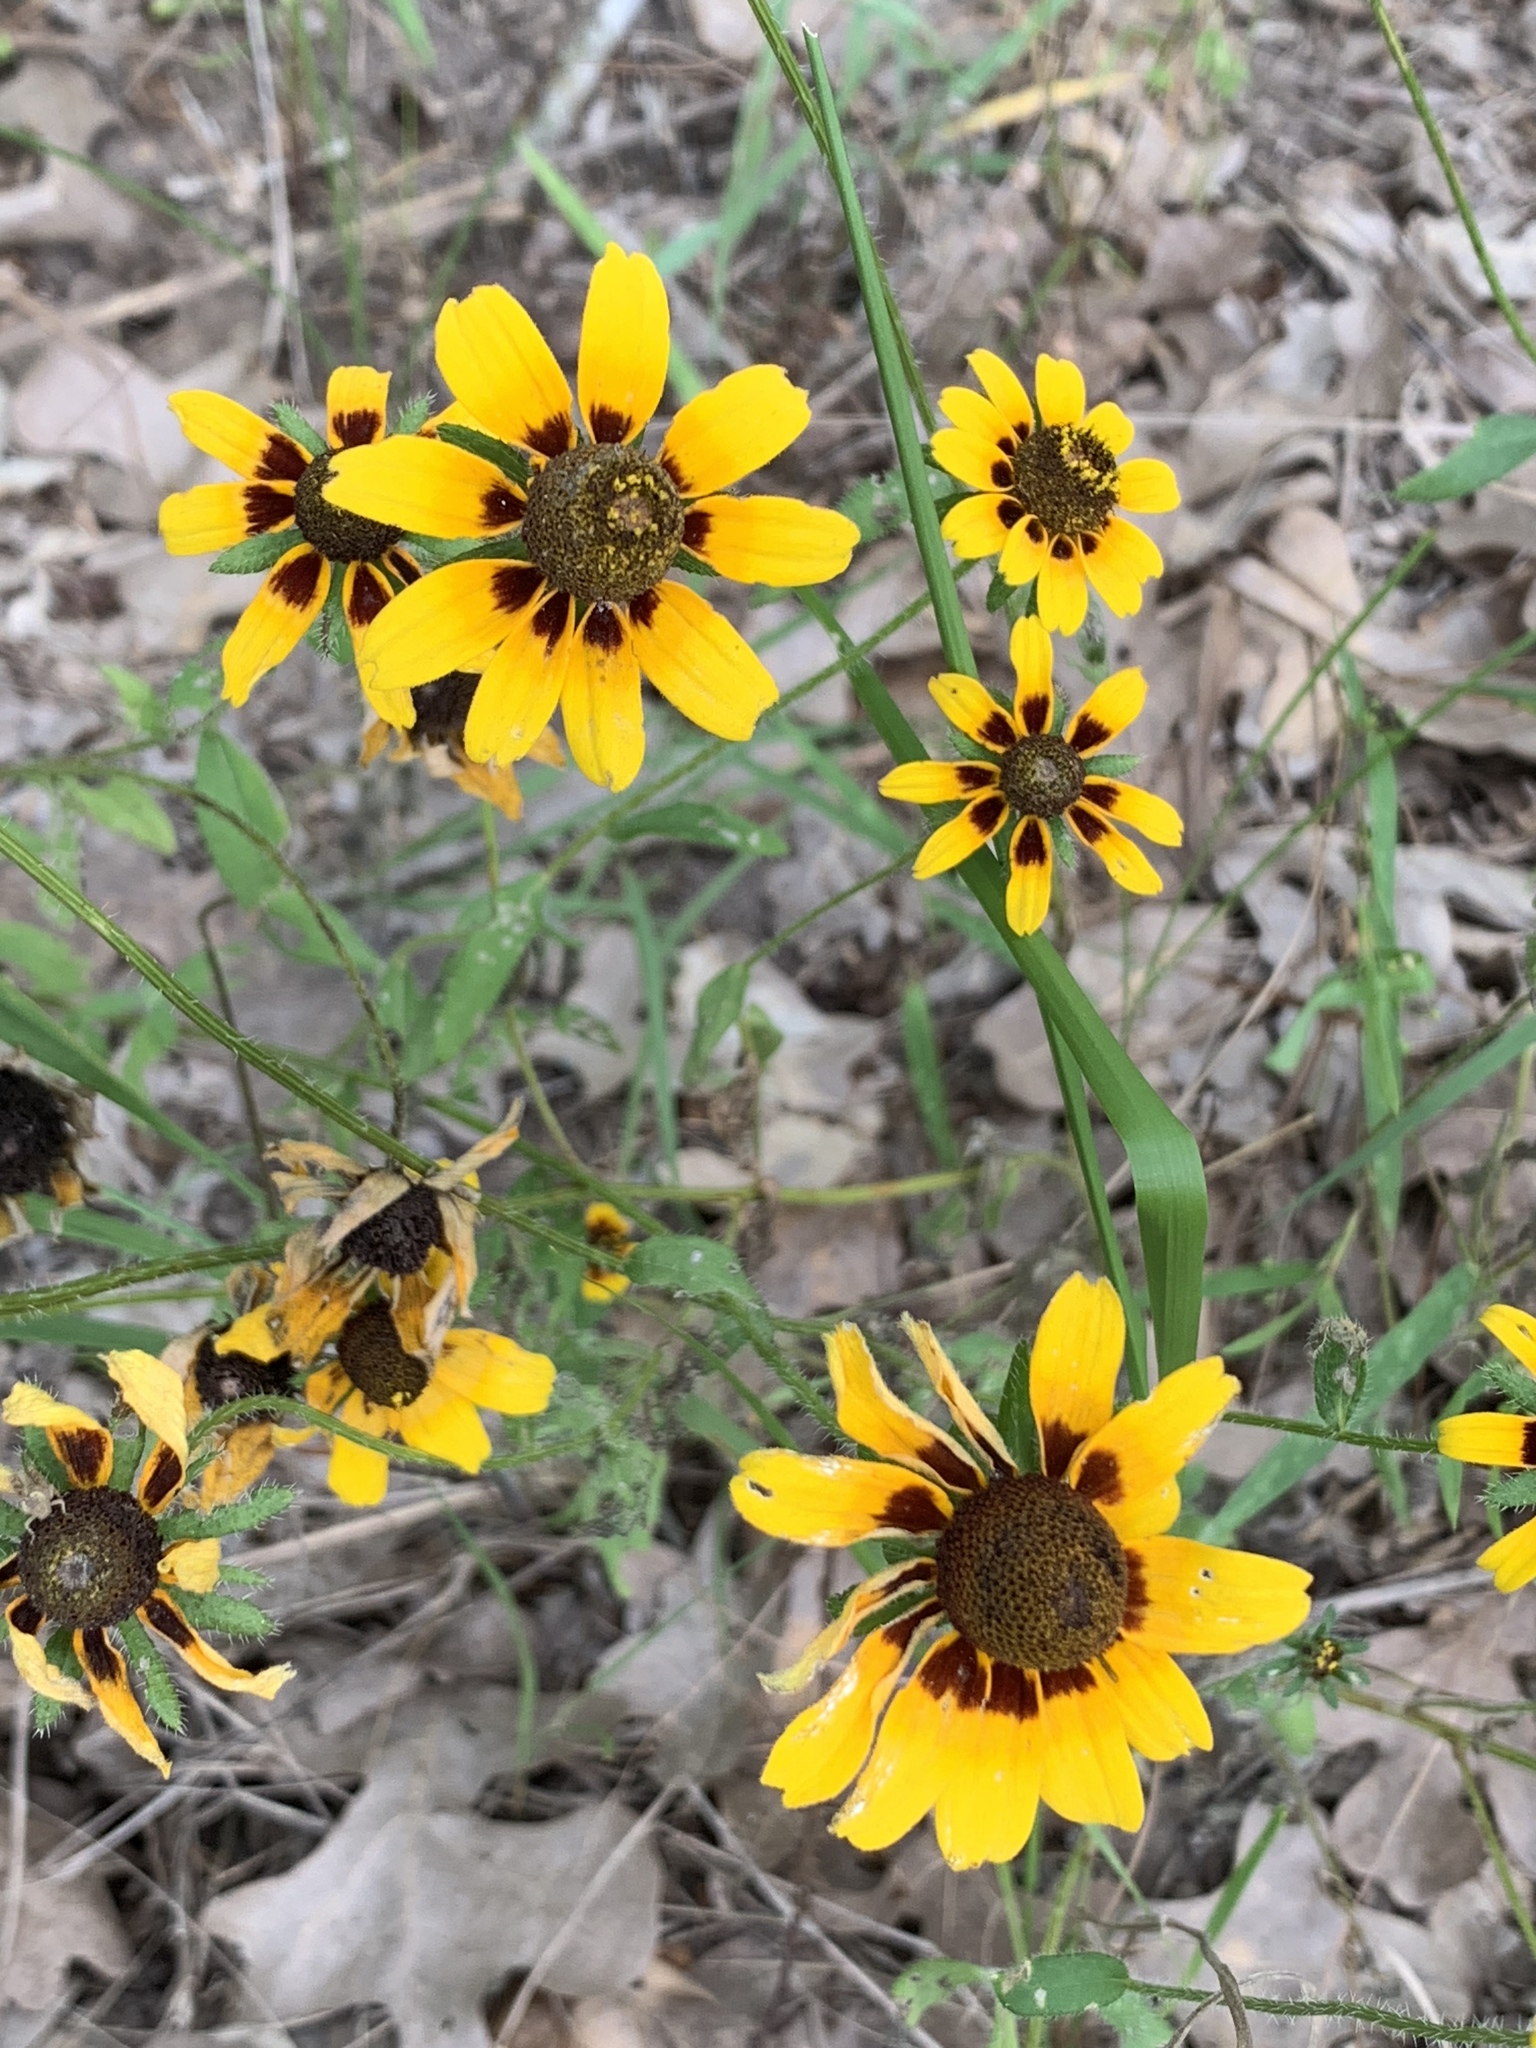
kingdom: Plantae
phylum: Tracheophyta
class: Magnoliopsida
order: Asterales
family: Asteraceae
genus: Rudbeckia
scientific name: Rudbeckia hirta
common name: Black-eyed-susan
